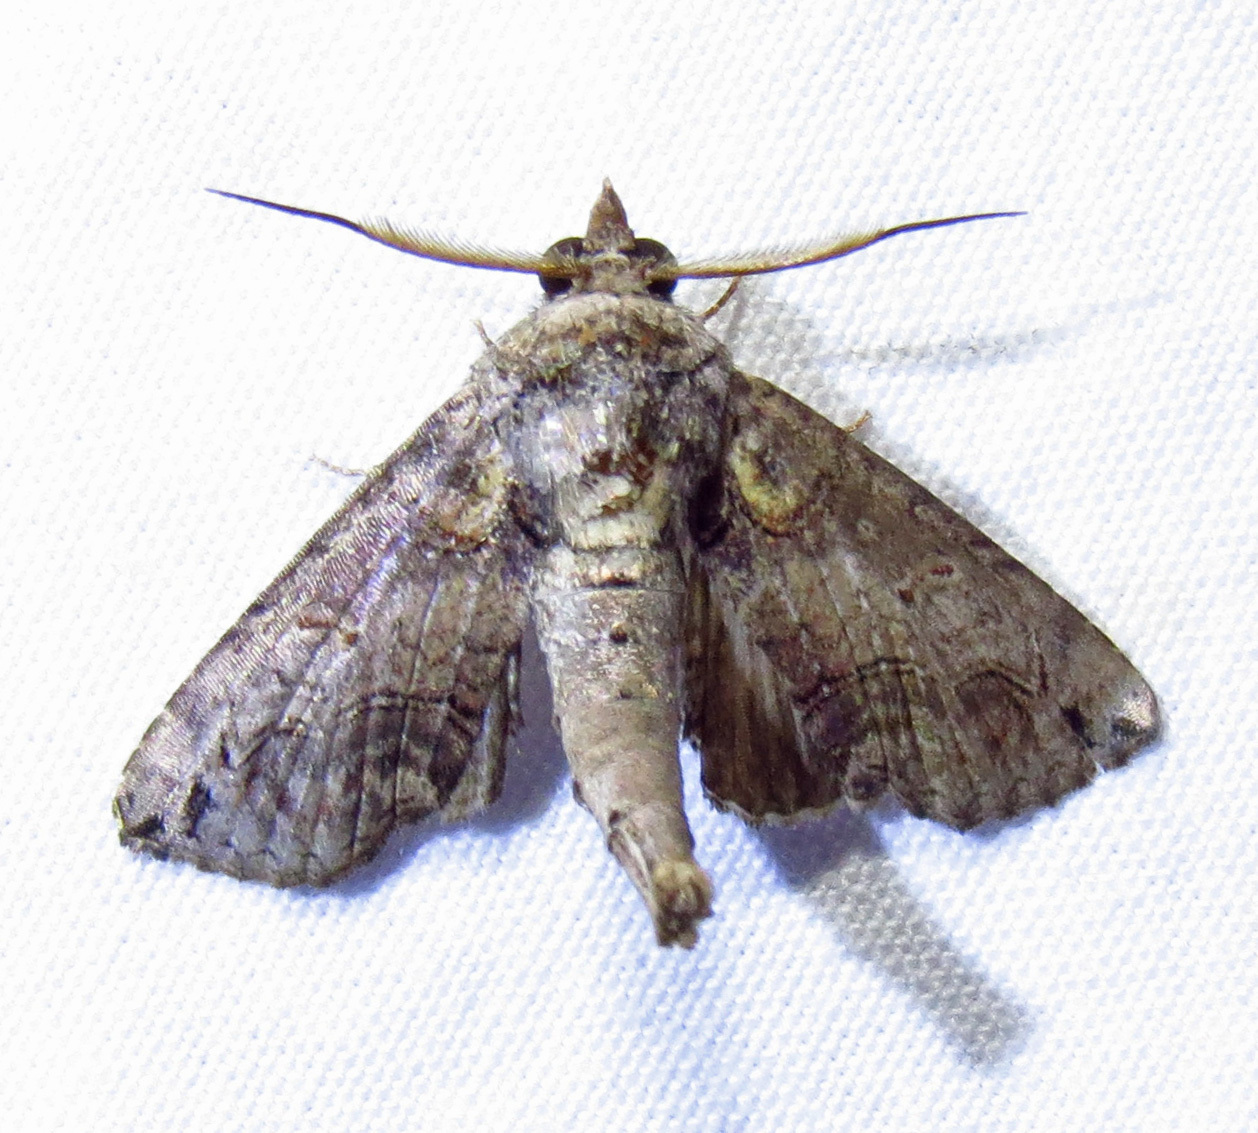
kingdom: Animalia
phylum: Arthropoda
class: Insecta
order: Lepidoptera
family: Euteliidae
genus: Paectes
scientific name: Paectes abrostoloides
